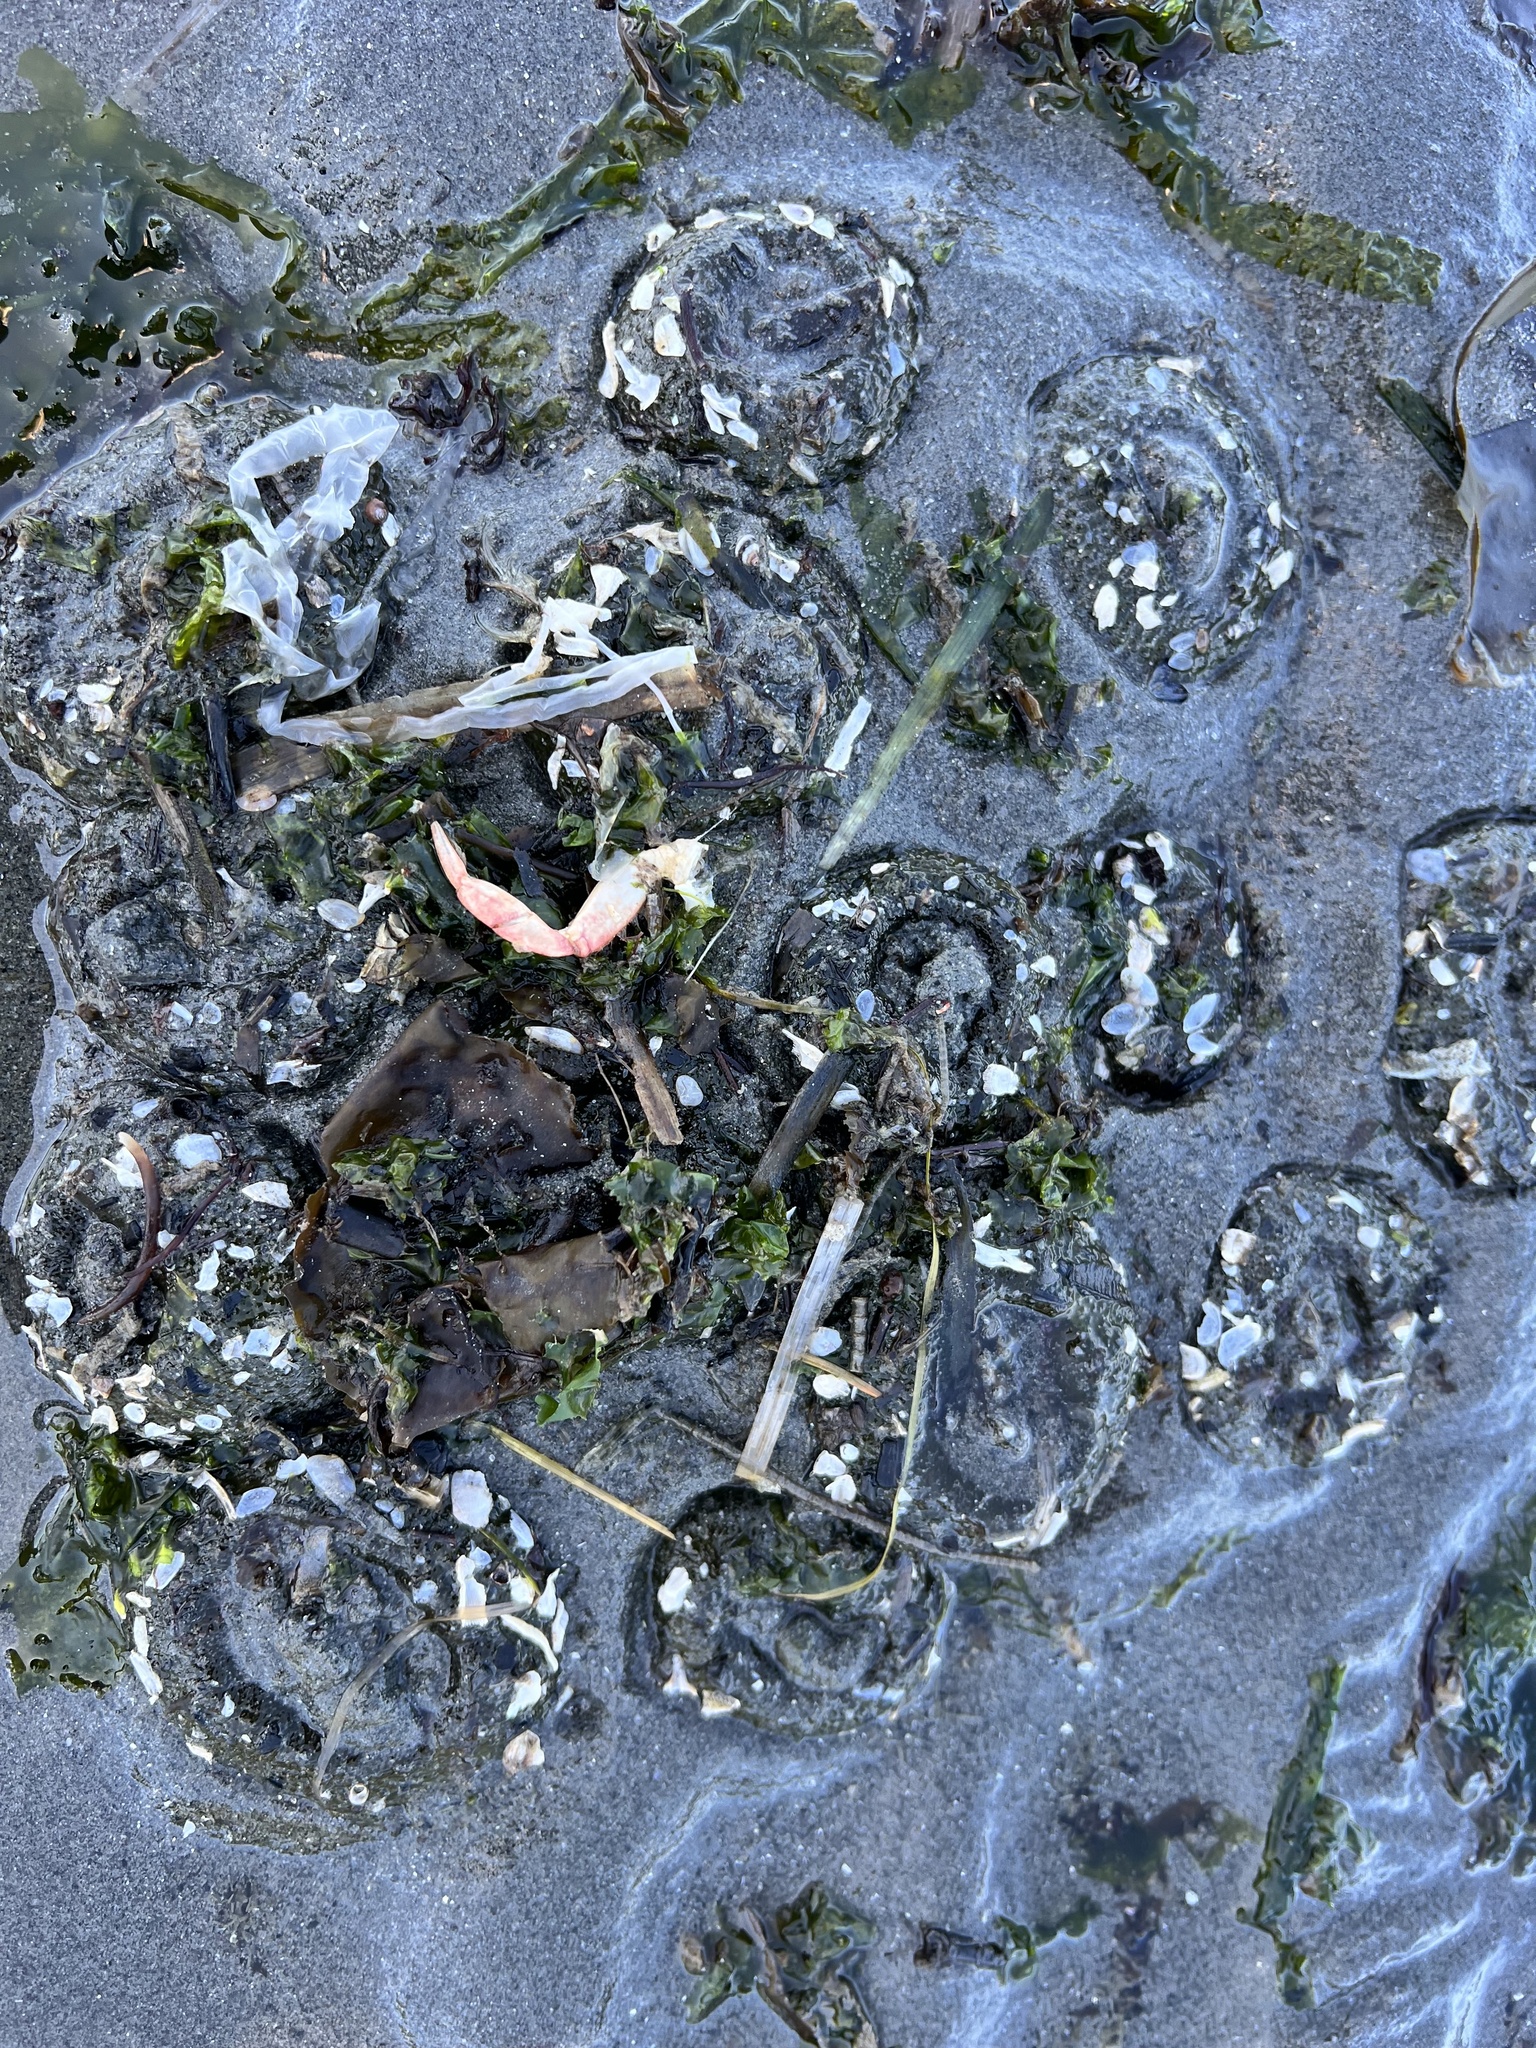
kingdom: Animalia
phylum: Cnidaria
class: Anthozoa
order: Actiniaria
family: Actiniidae
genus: Anthopleura
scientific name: Anthopleura elegantissima
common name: Clonal anemone
